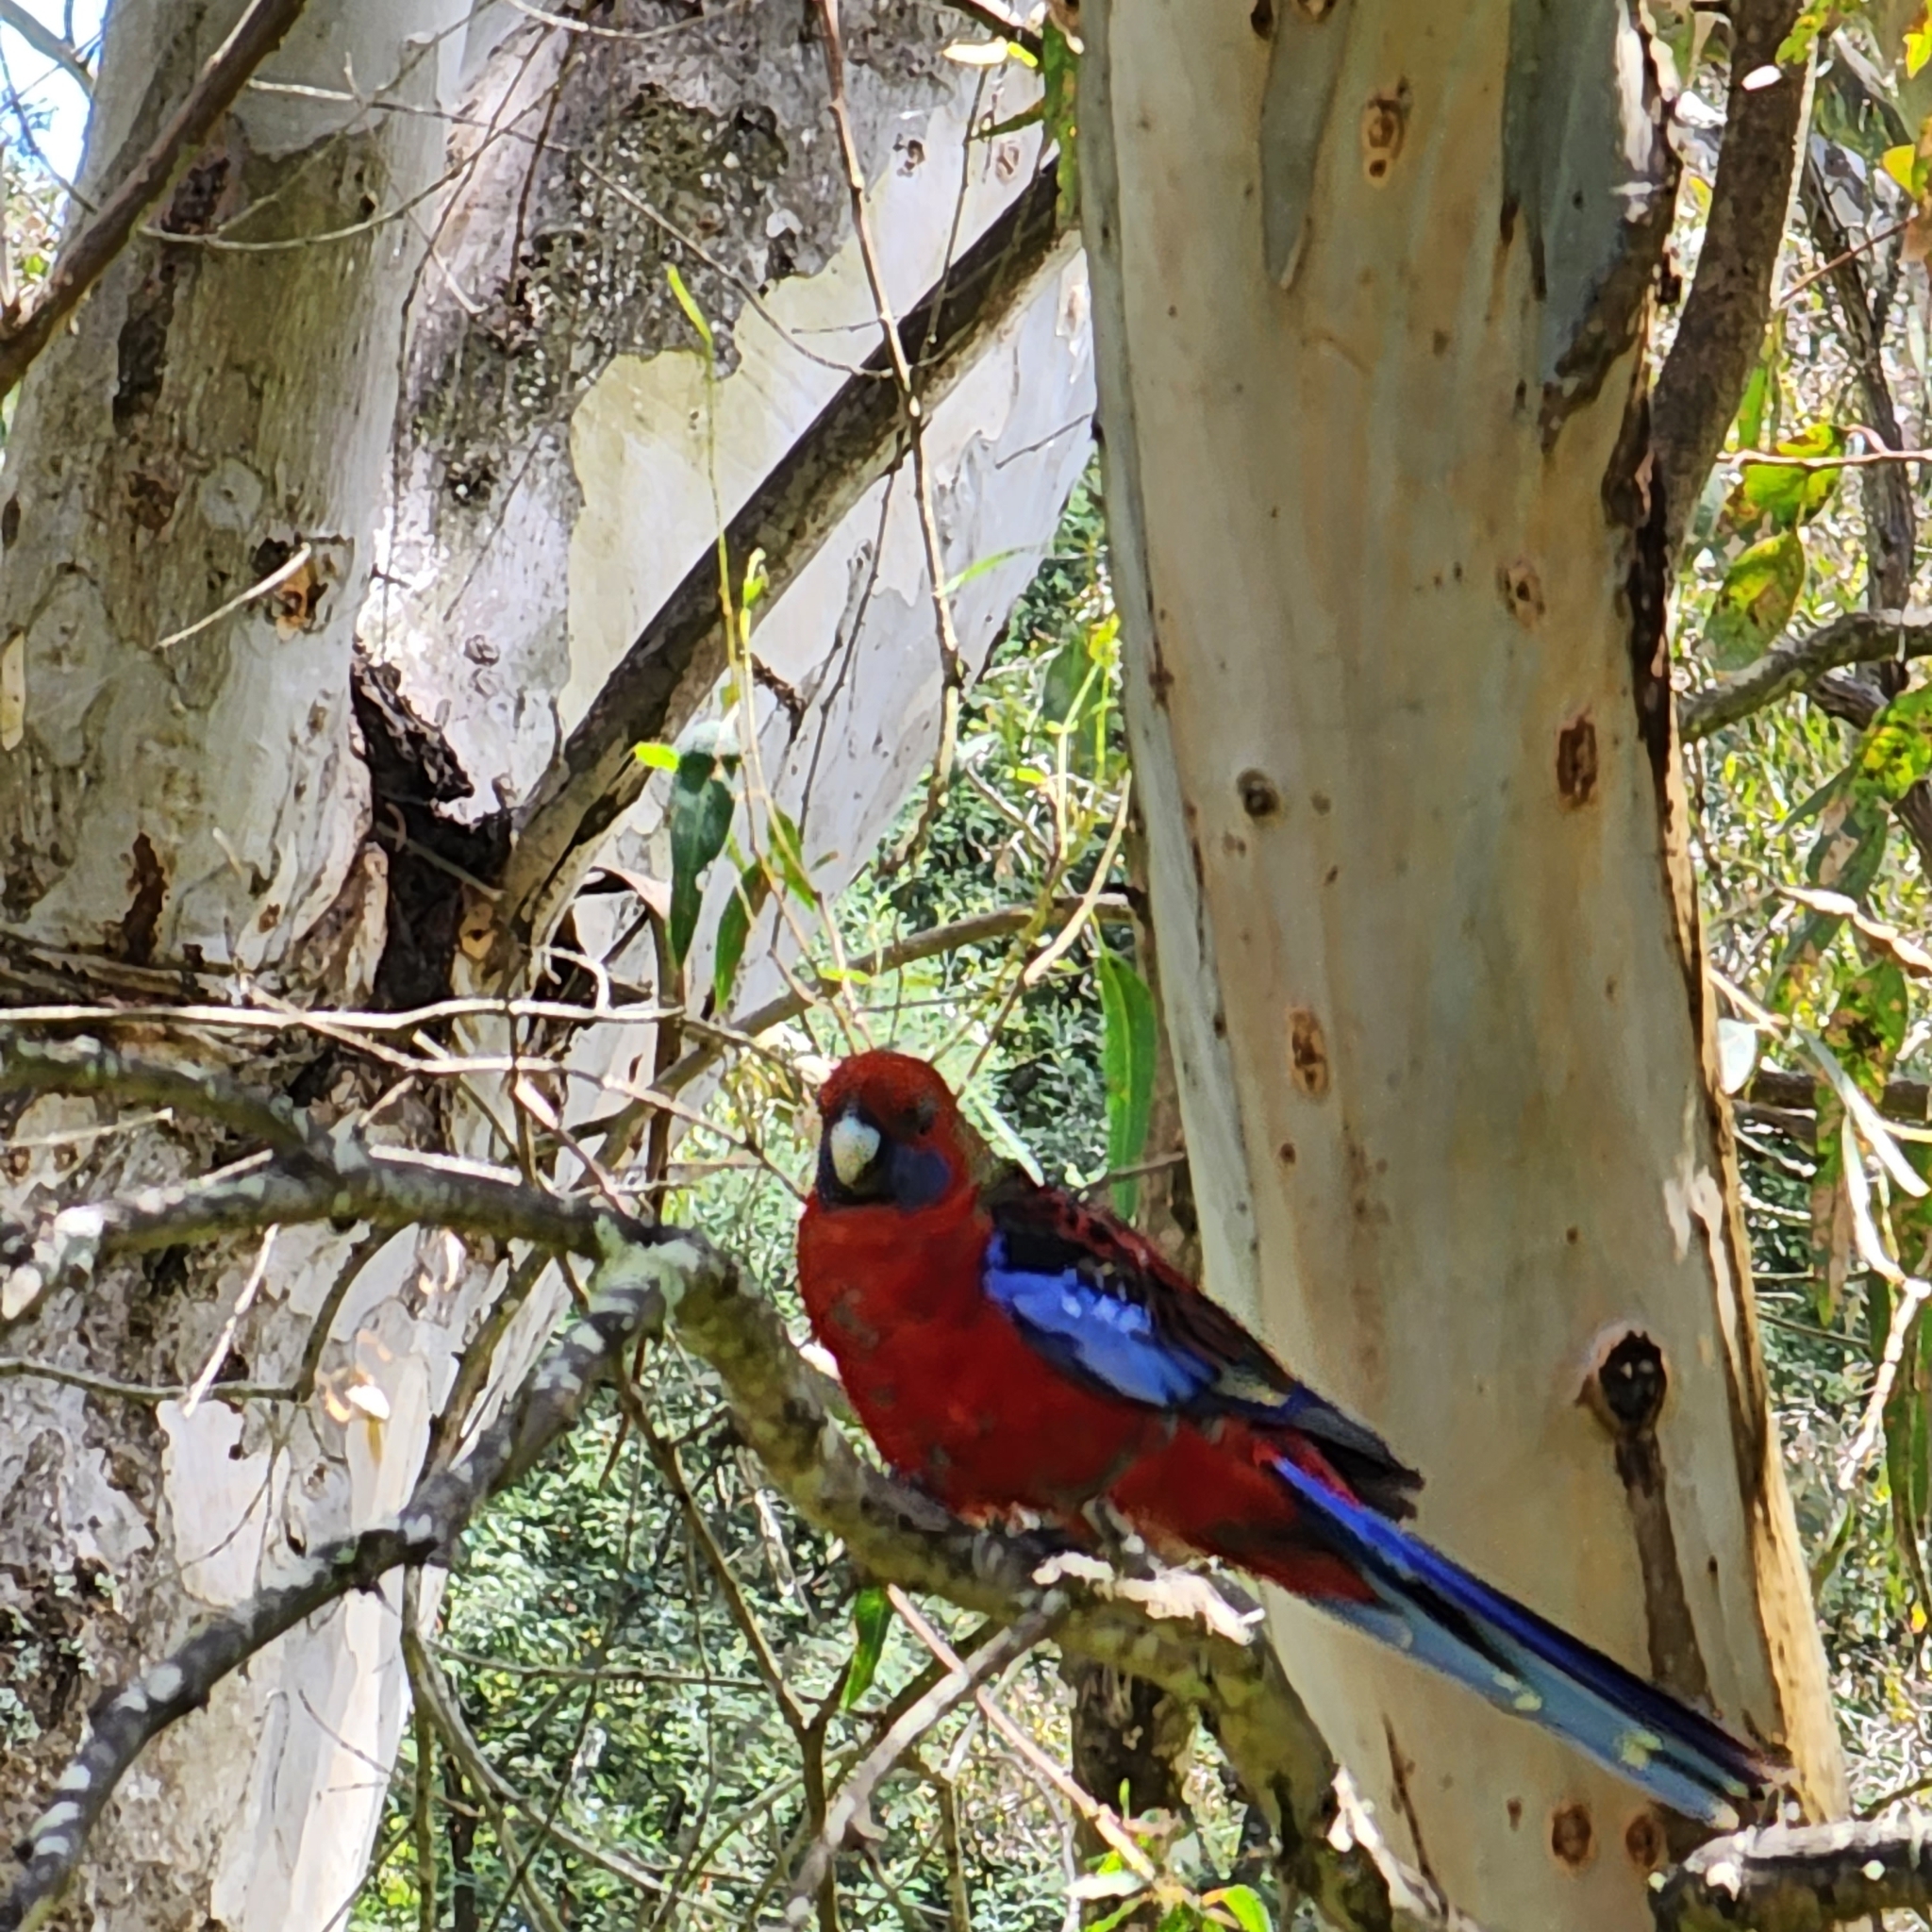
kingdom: Animalia
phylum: Chordata
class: Aves
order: Psittaciformes
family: Psittacidae
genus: Platycercus
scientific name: Platycercus elegans
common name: Crimson rosella
